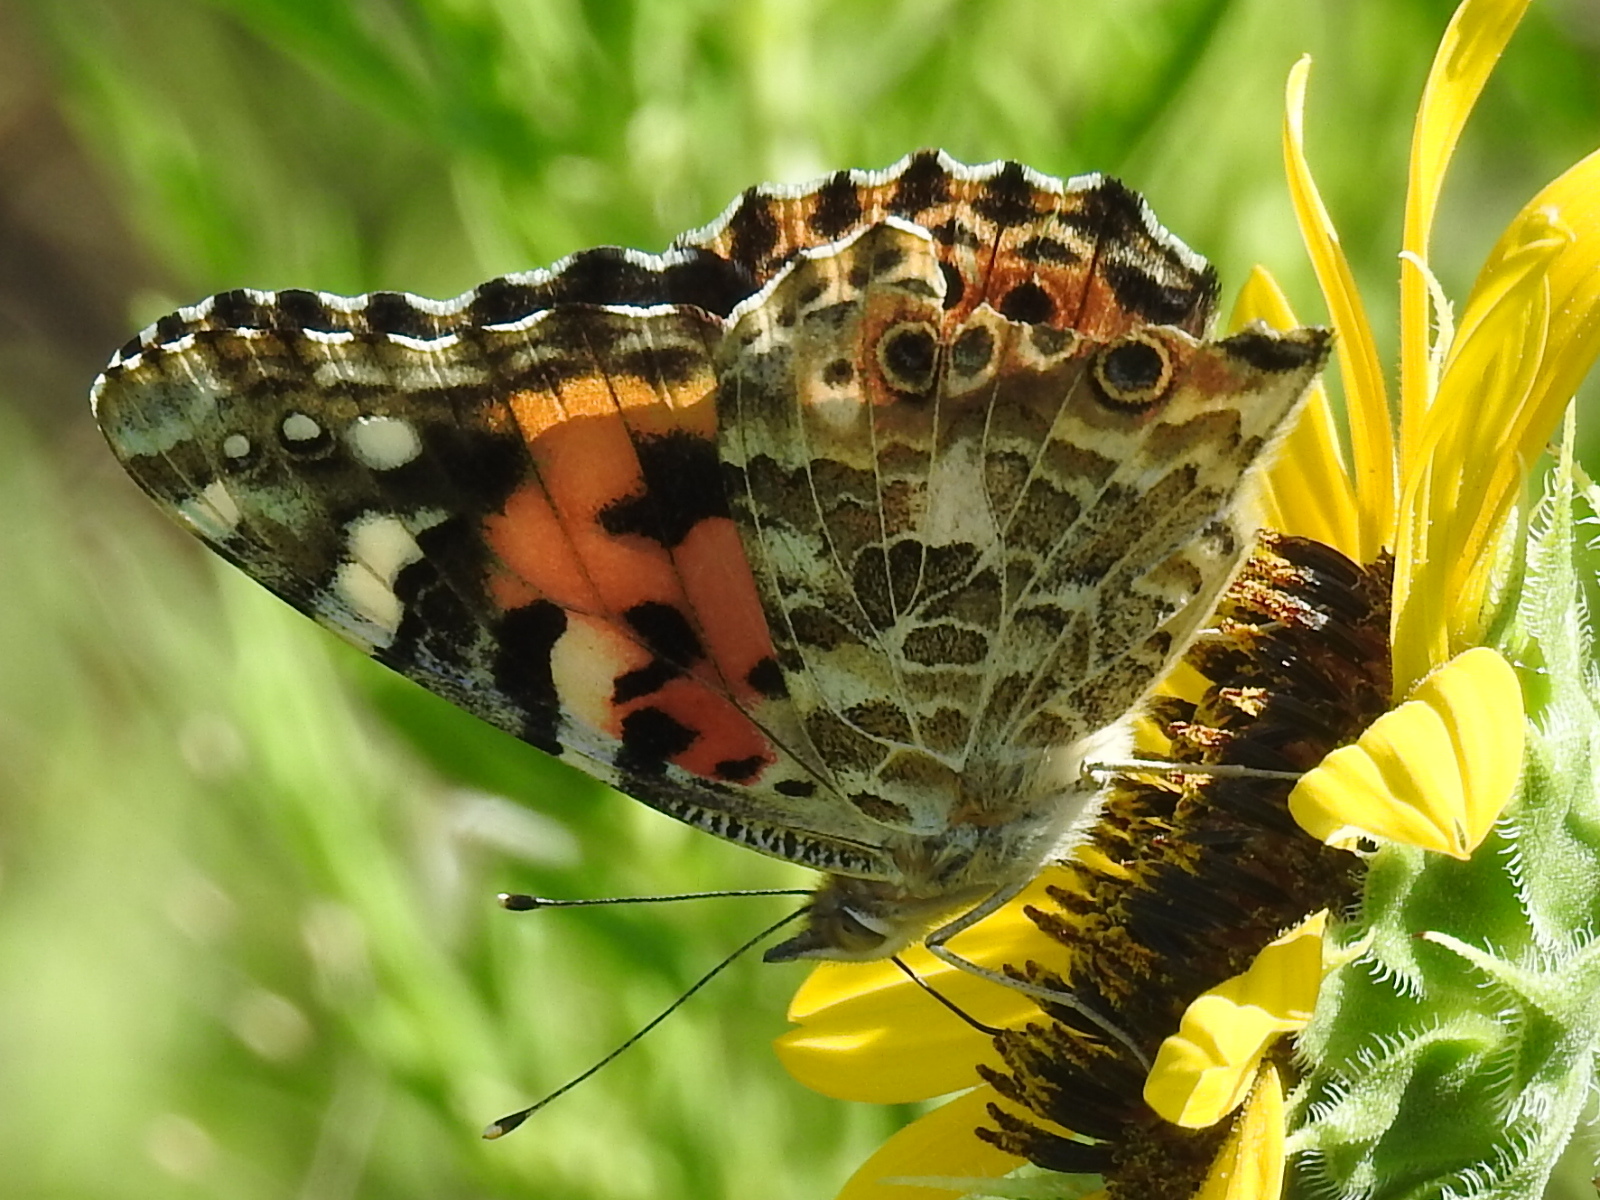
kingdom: Animalia
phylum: Arthropoda
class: Insecta
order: Lepidoptera
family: Nymphalidae
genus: Vanessa
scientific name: Vanessa cardui
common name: Painted lady
